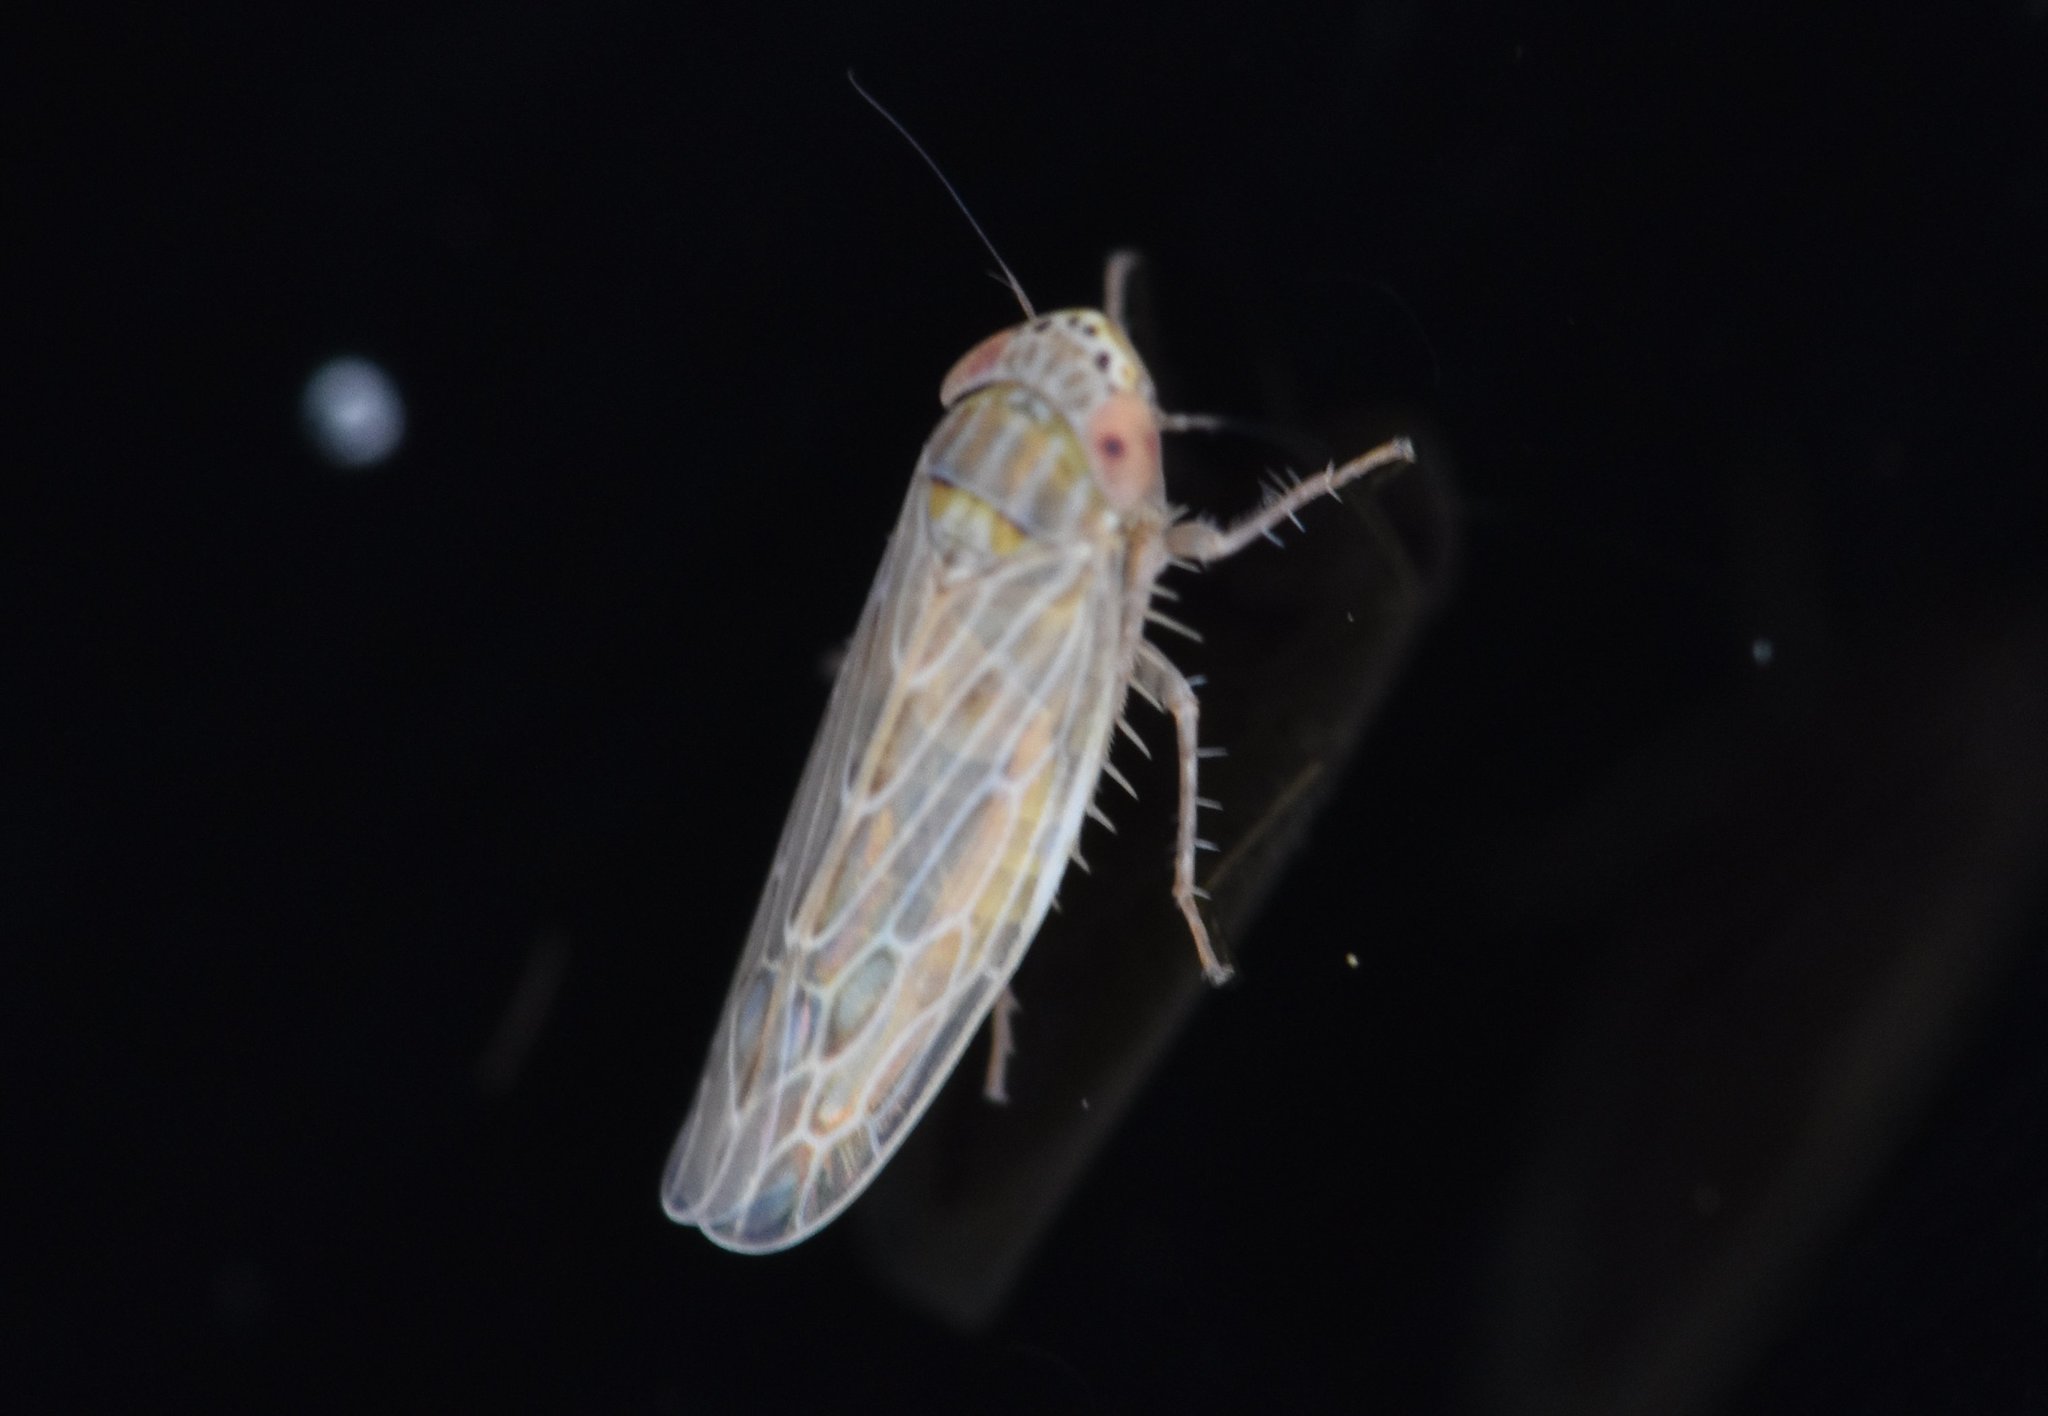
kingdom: Animalia
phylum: Arthropoda
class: Insecta
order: Hemiptera
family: Cicadellidae
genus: Graminella
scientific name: Graminella sonora
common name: Lesser lawn leafhopper
